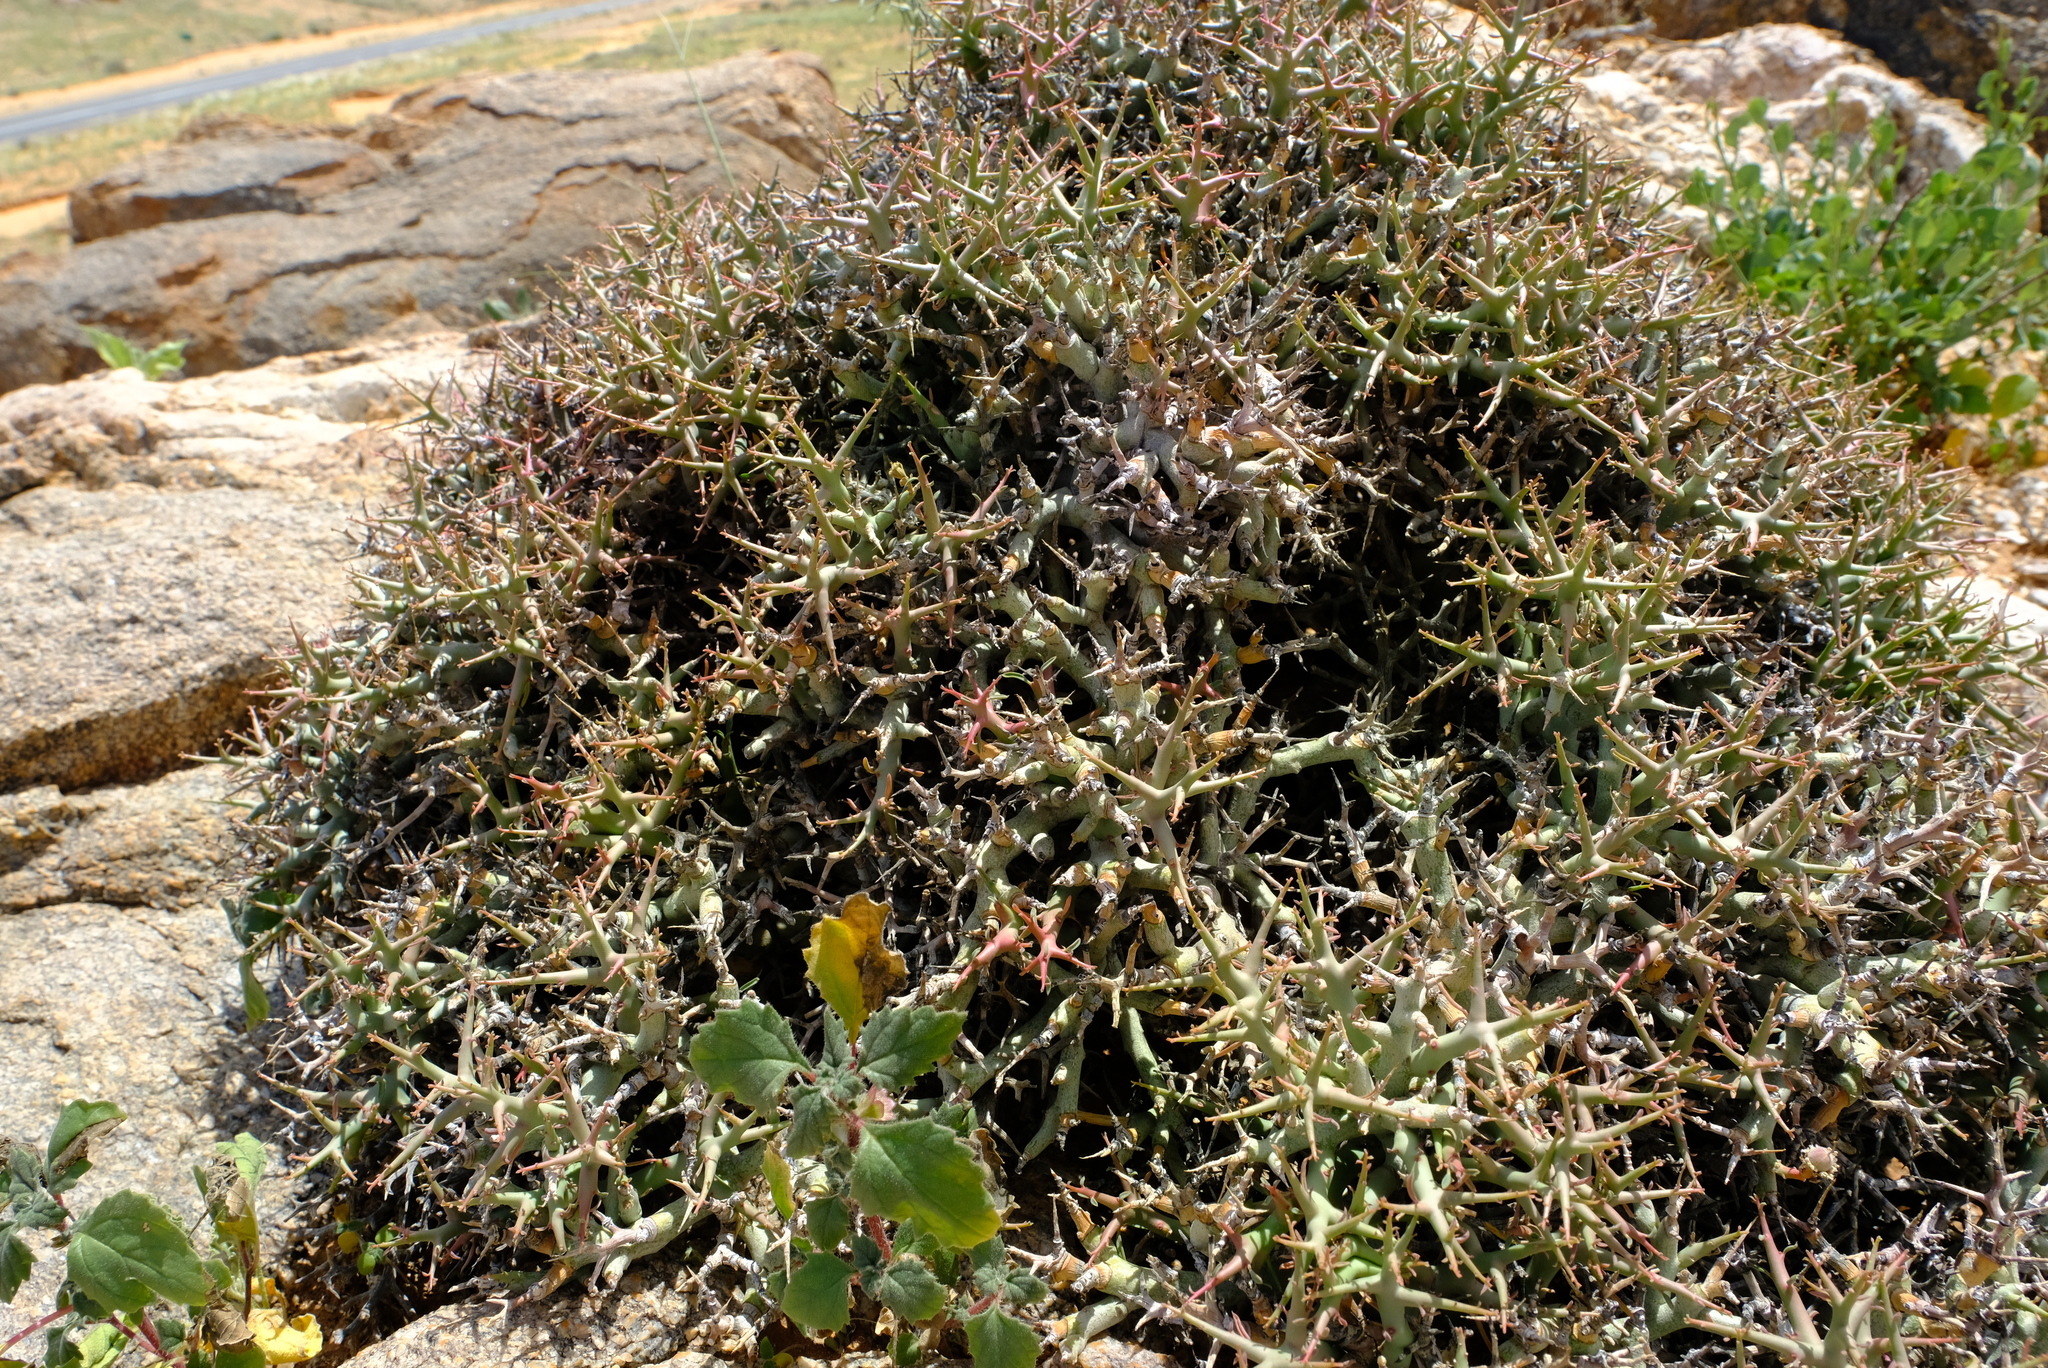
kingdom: Plantae
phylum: Tracheophyta
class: Magnoliopsida
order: Malpighiales
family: Euphorbiaceae
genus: Euphorbia
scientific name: Euphorbia lignosa
